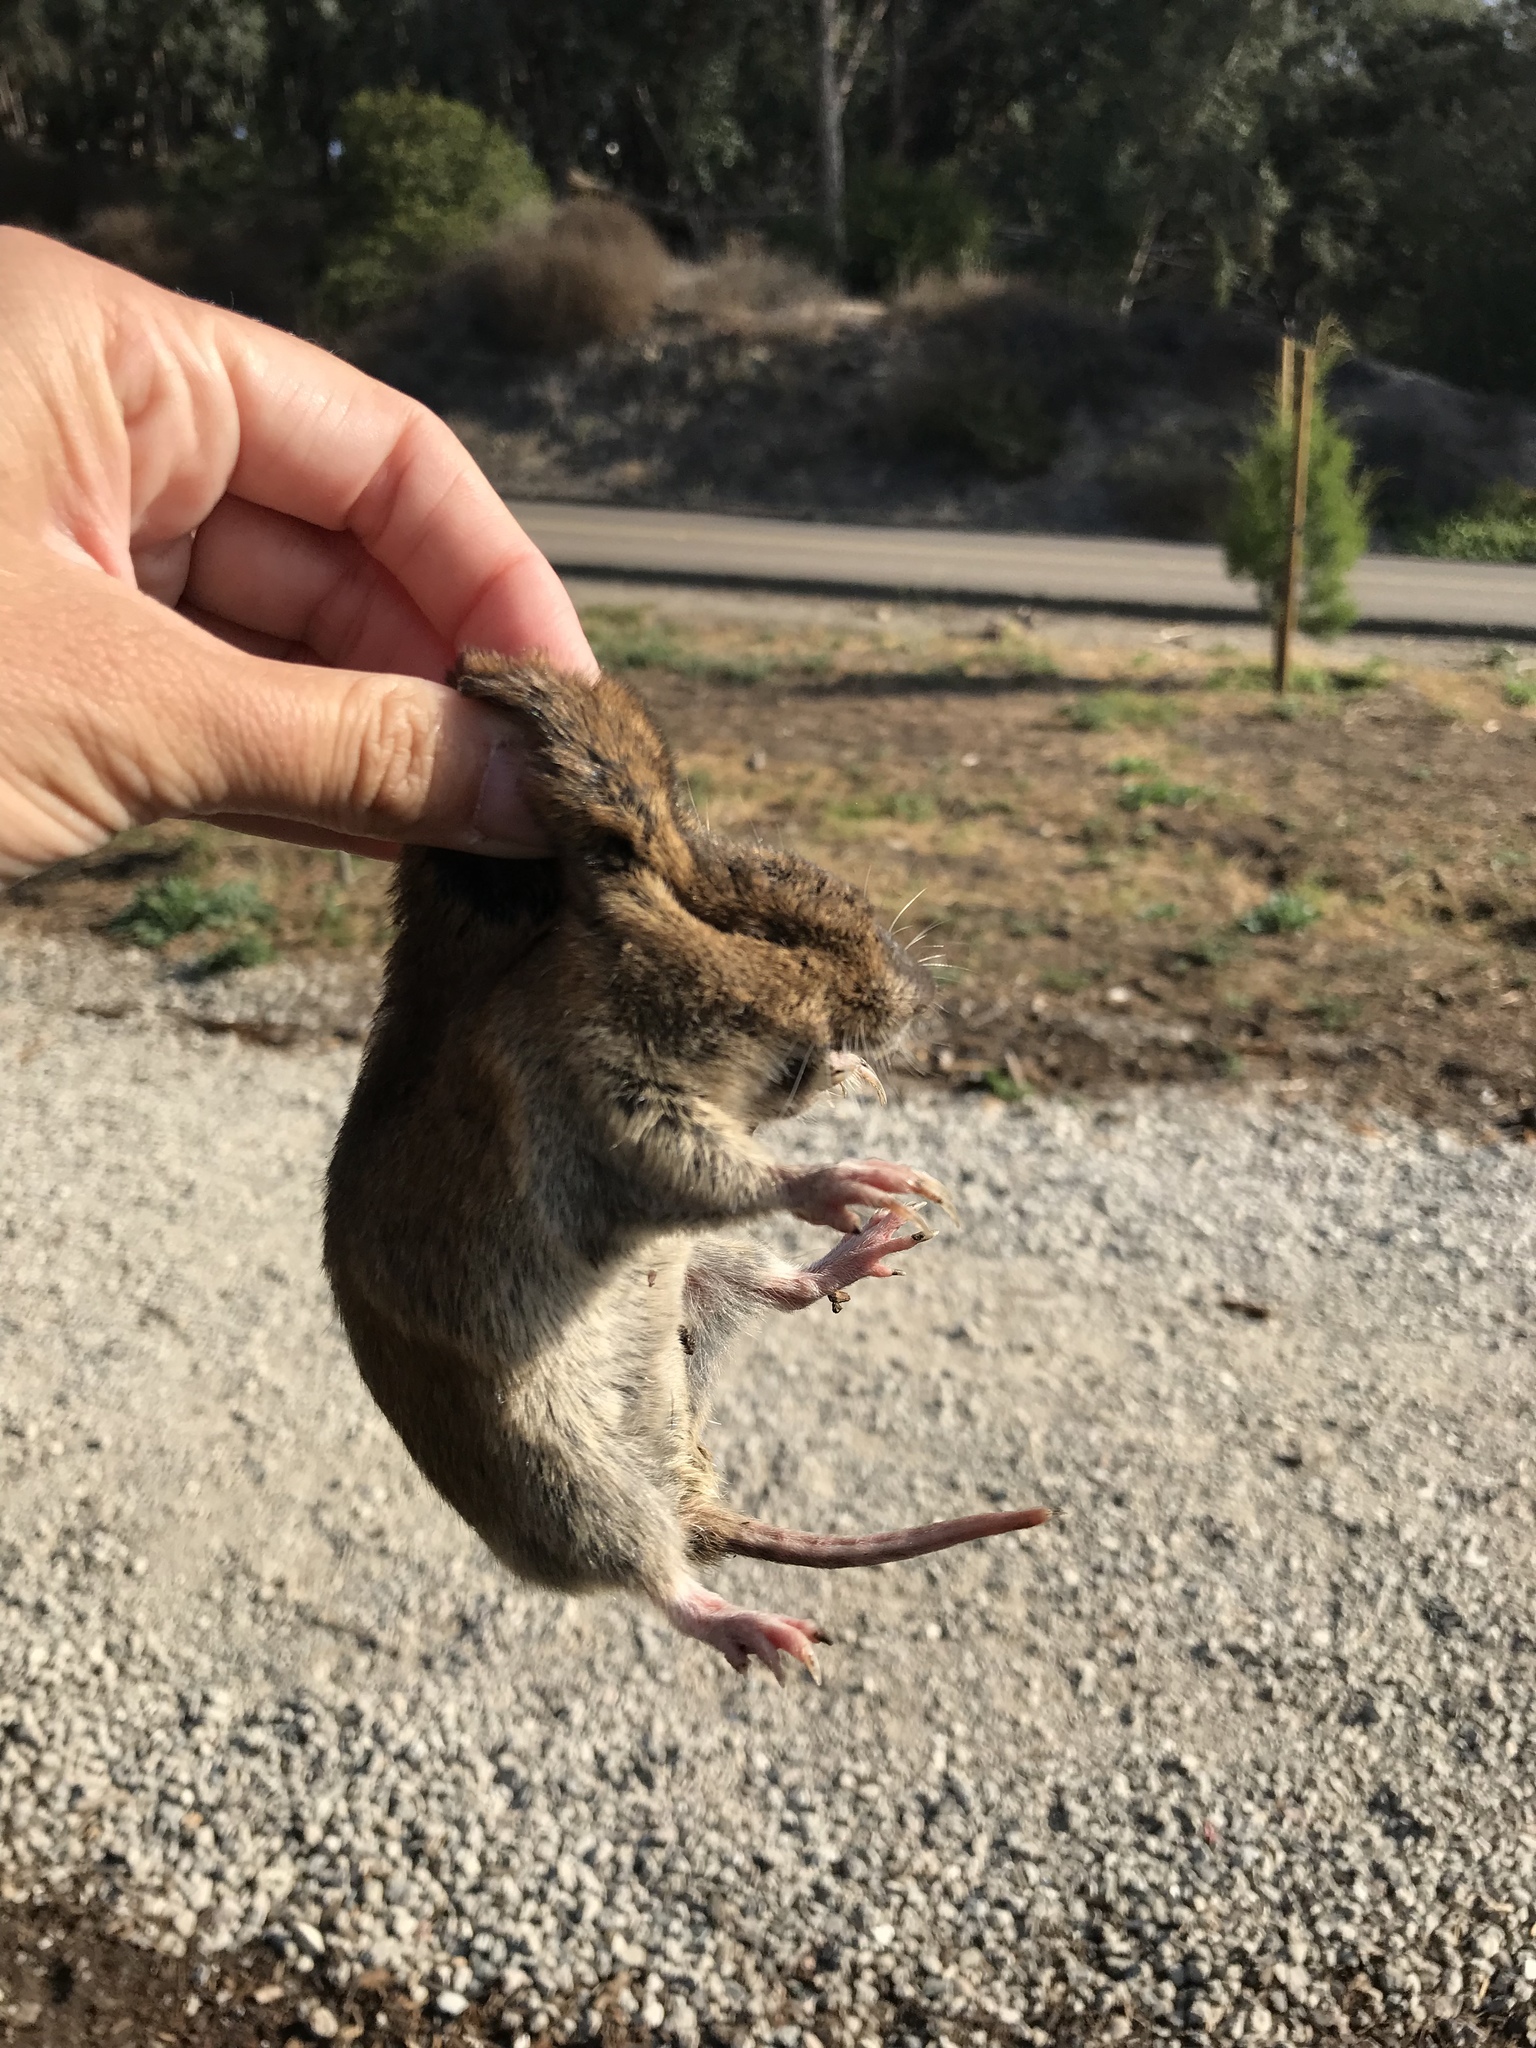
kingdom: Animalia
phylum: Chordata
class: Mammalia
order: Rodentia
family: Geomyidae
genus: Thomomys
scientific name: Thomomys bottae
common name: Botta's pocket gopher
